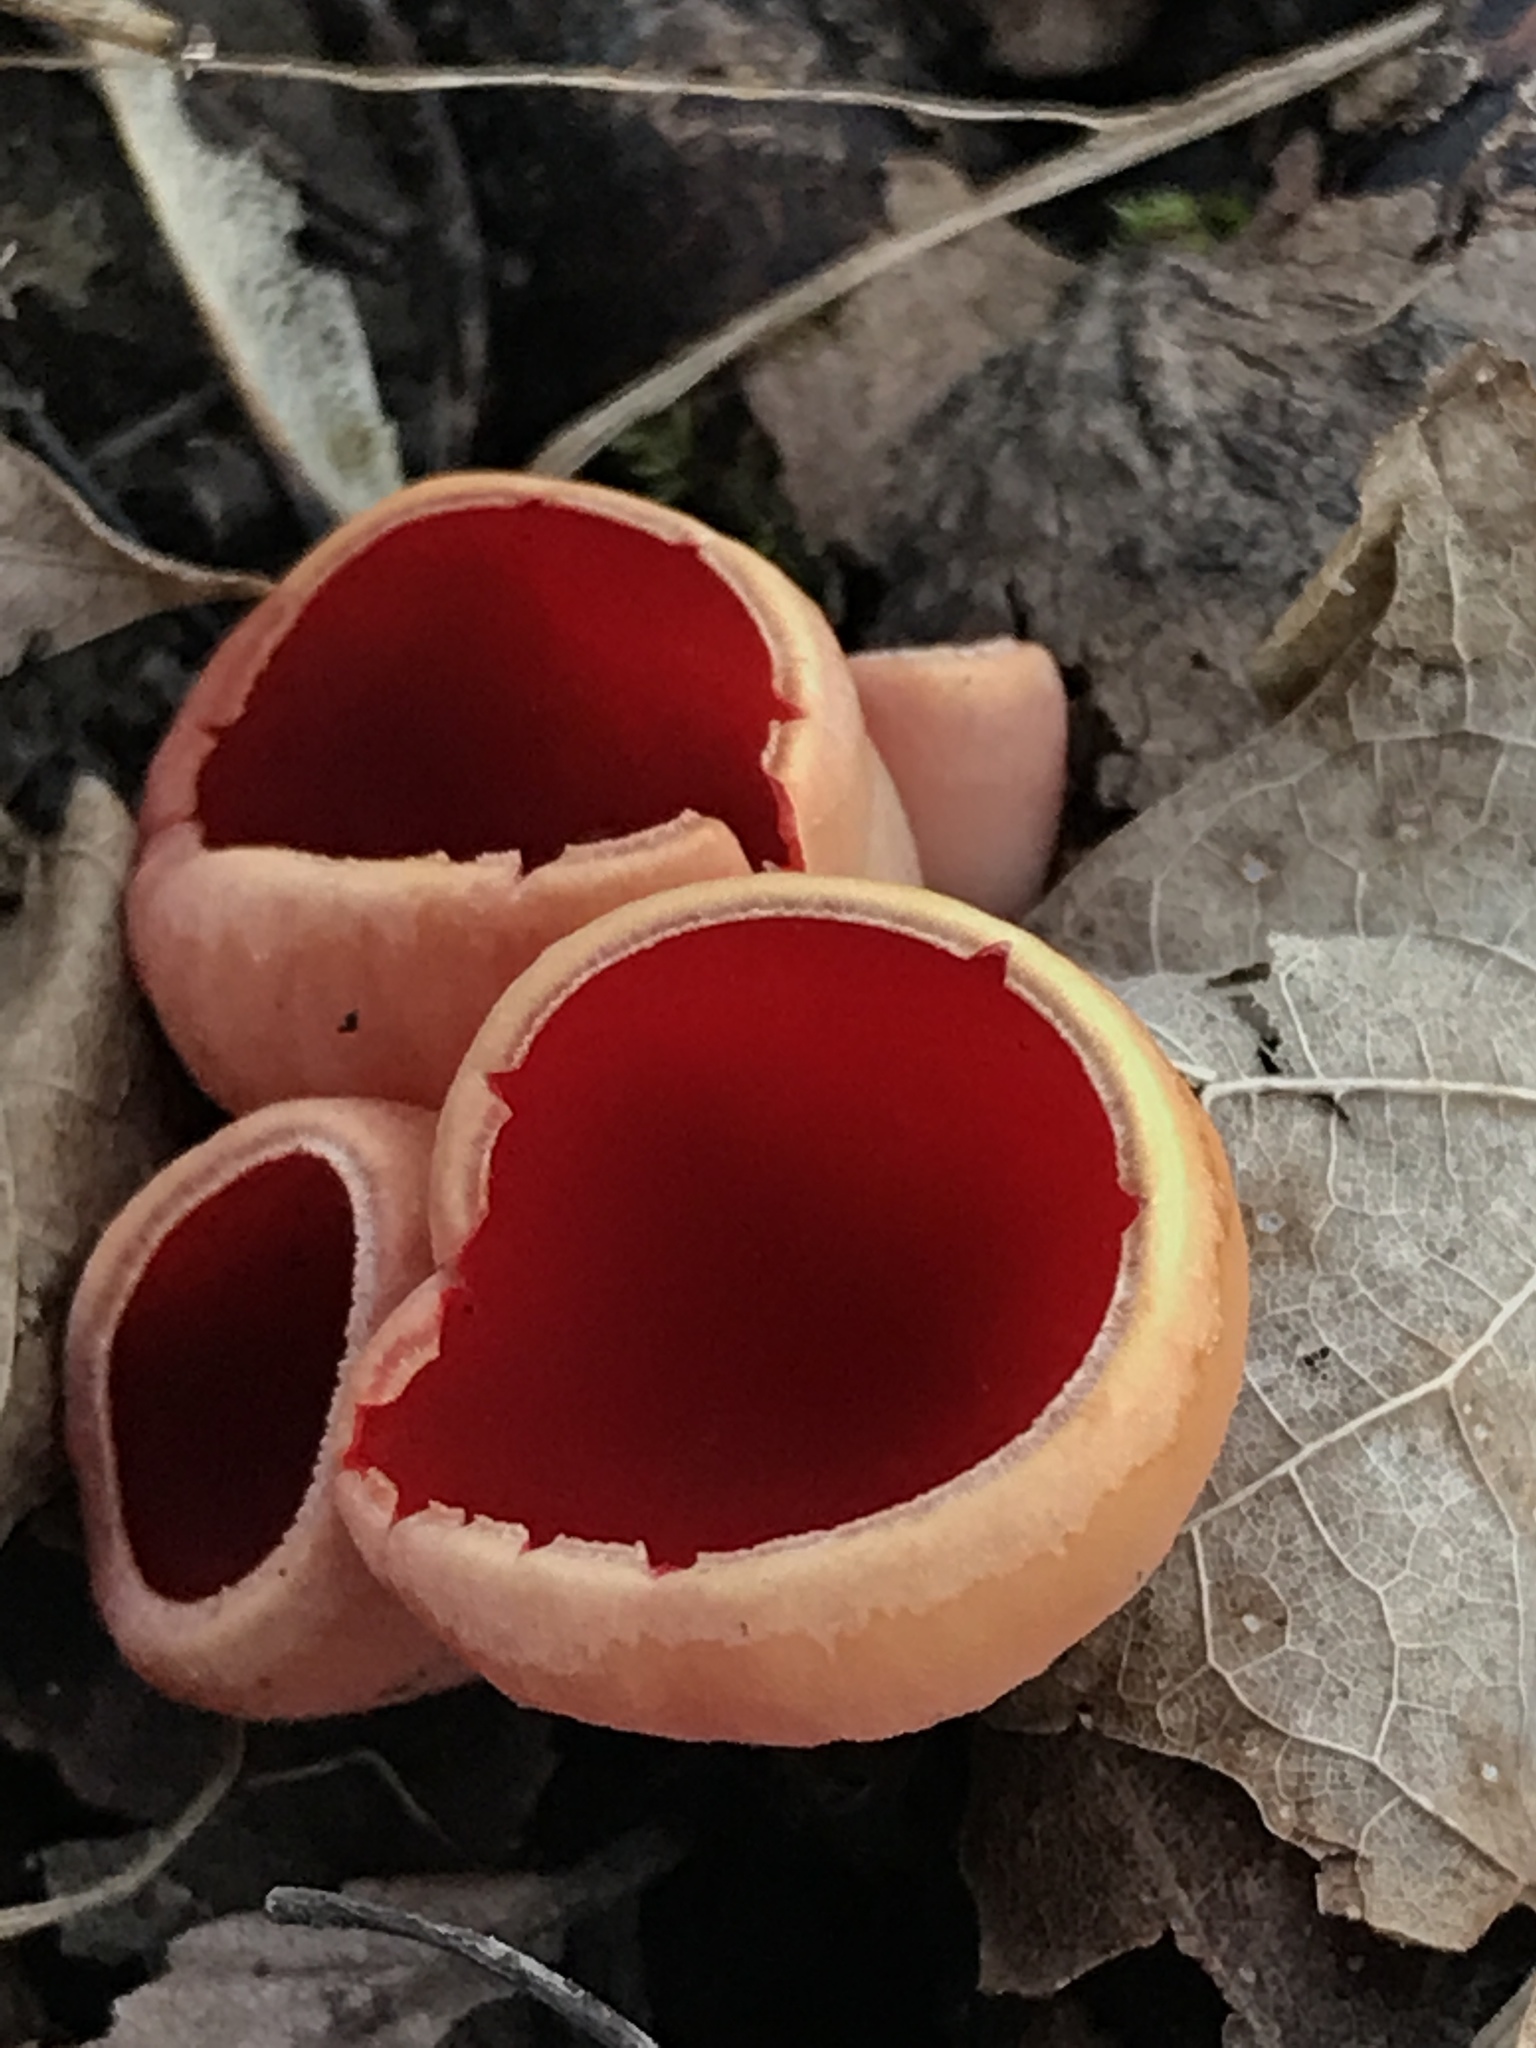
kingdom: Fungi
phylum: Ascomycota
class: Pezizomycetes
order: Pezizales
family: Sarcoscyphaceae
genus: Sarcoscypha
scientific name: Sarcoscypha austriaca
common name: Scarlet elfcup
